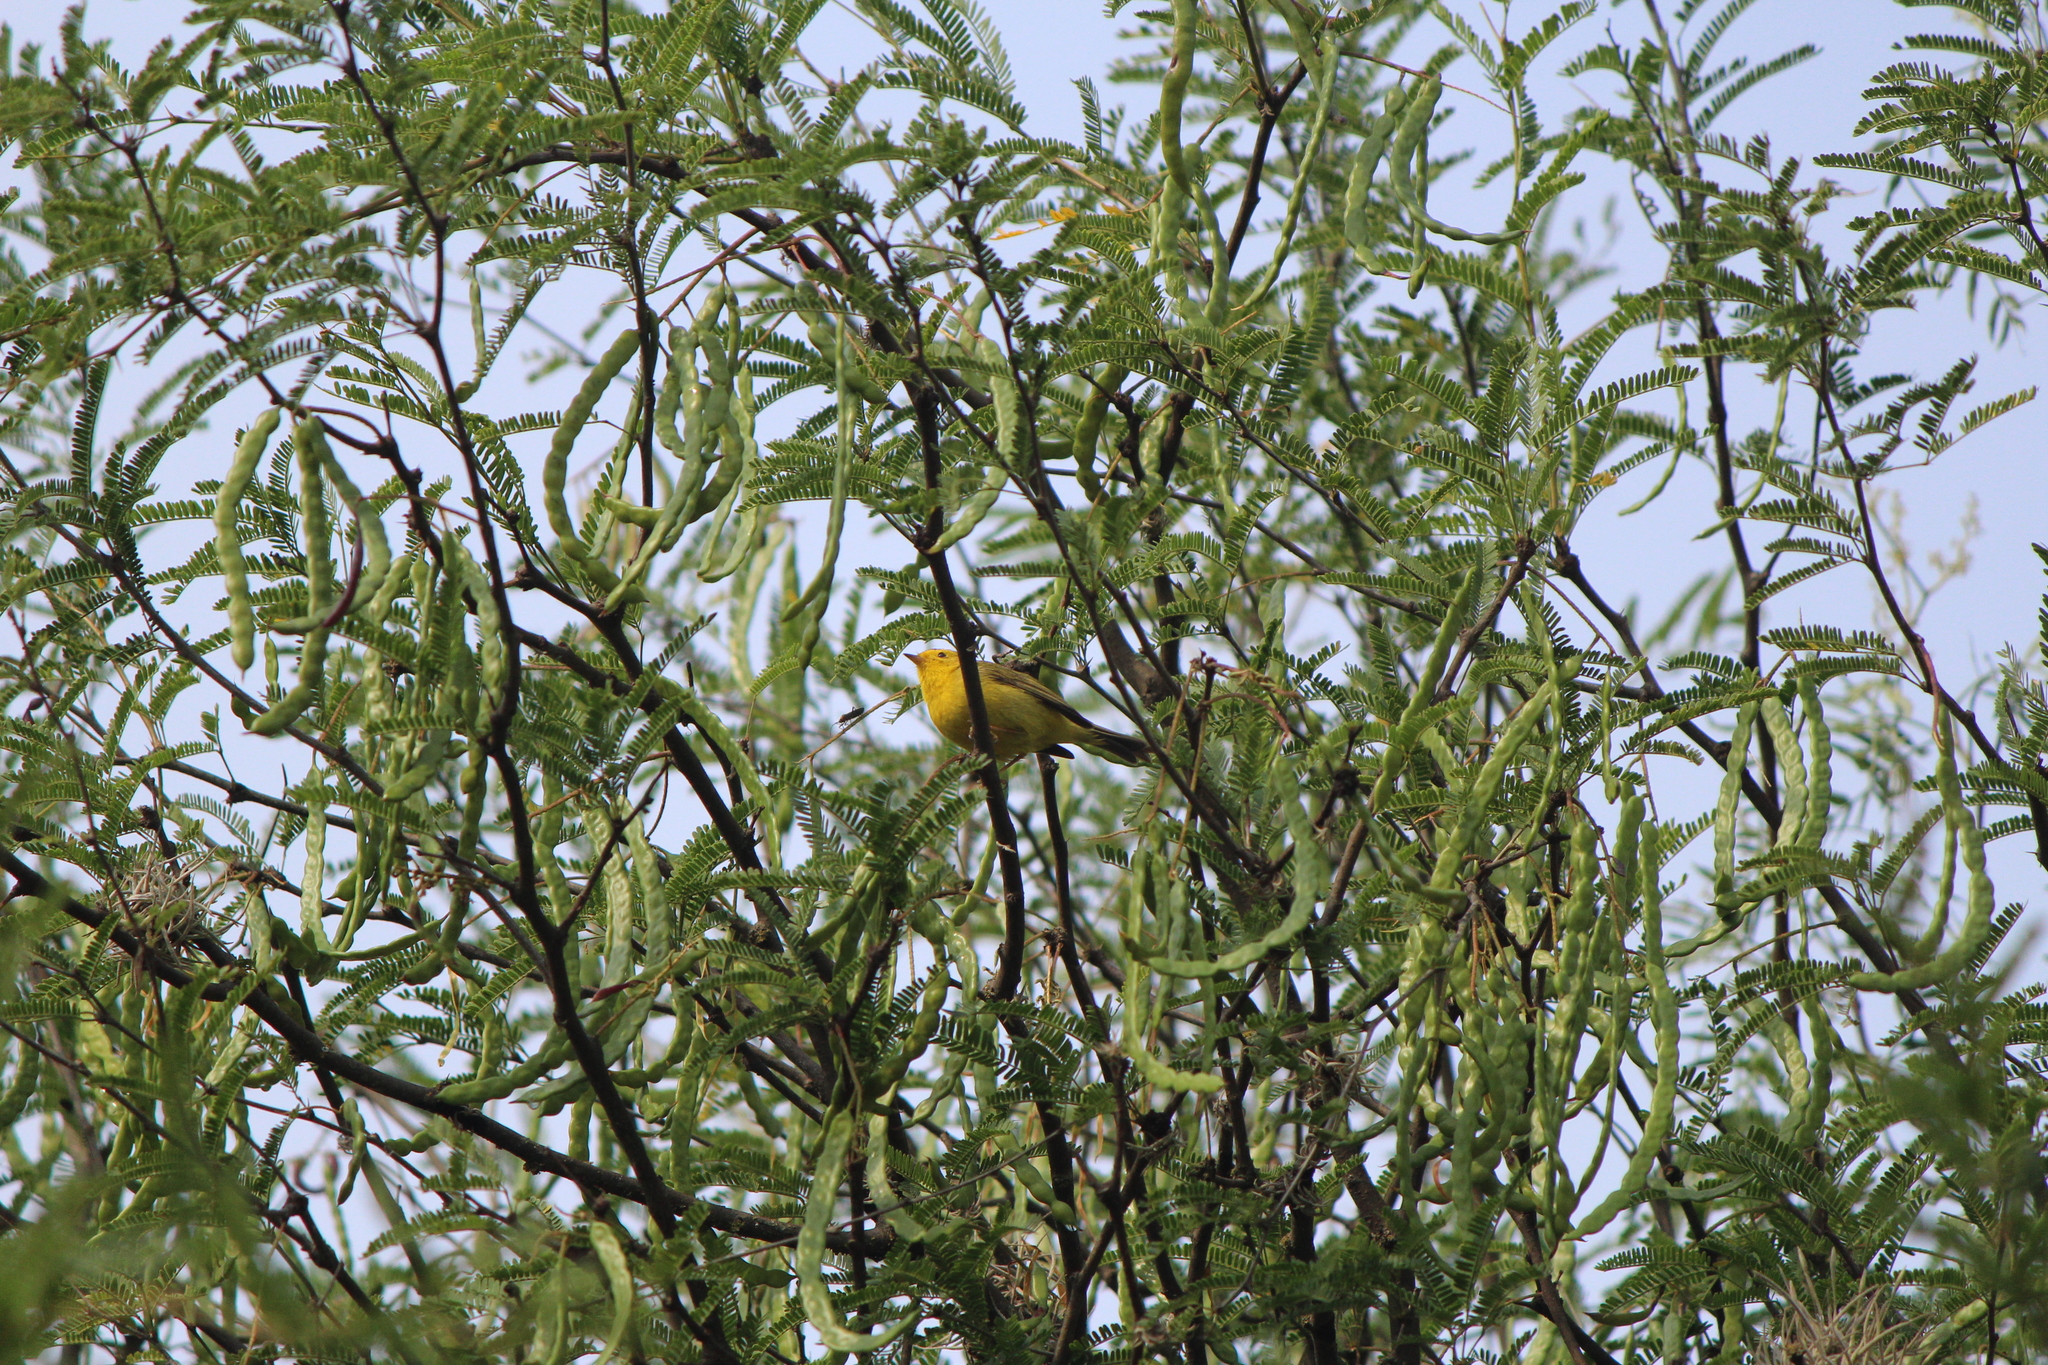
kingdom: Animalia
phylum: Chordata
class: Aves
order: Passeriformes
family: Parulidae
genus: Cardellina
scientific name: Cardellina pusilla
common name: Wilson's warbler
